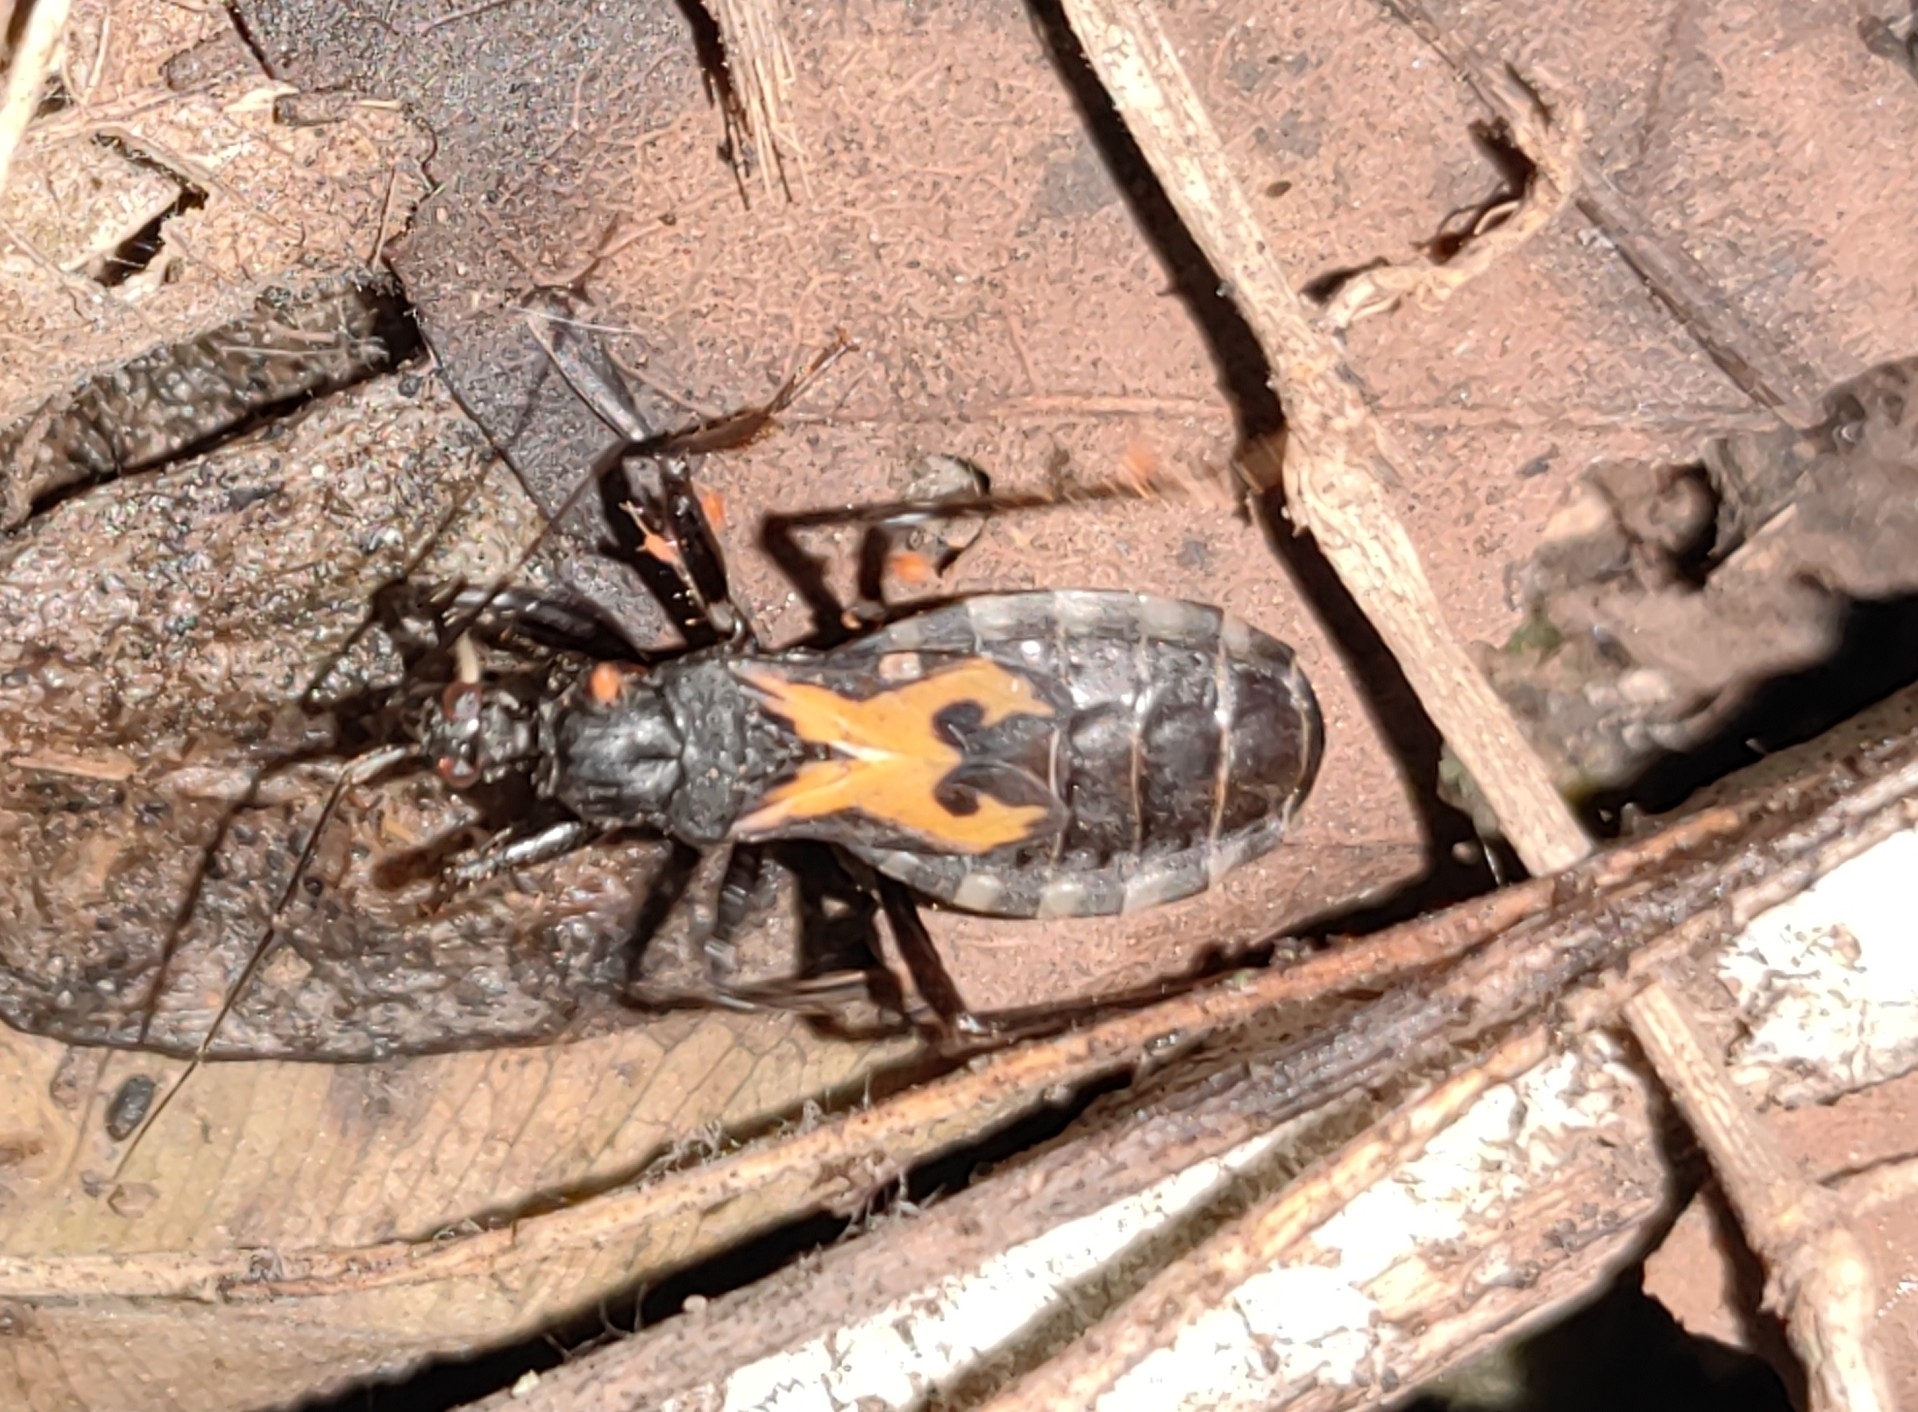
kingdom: Animalia
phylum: Arthropoda
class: Insecta
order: Hemiptera
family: Reduviidae
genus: Rasahus
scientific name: Rasahus bifurcatus
